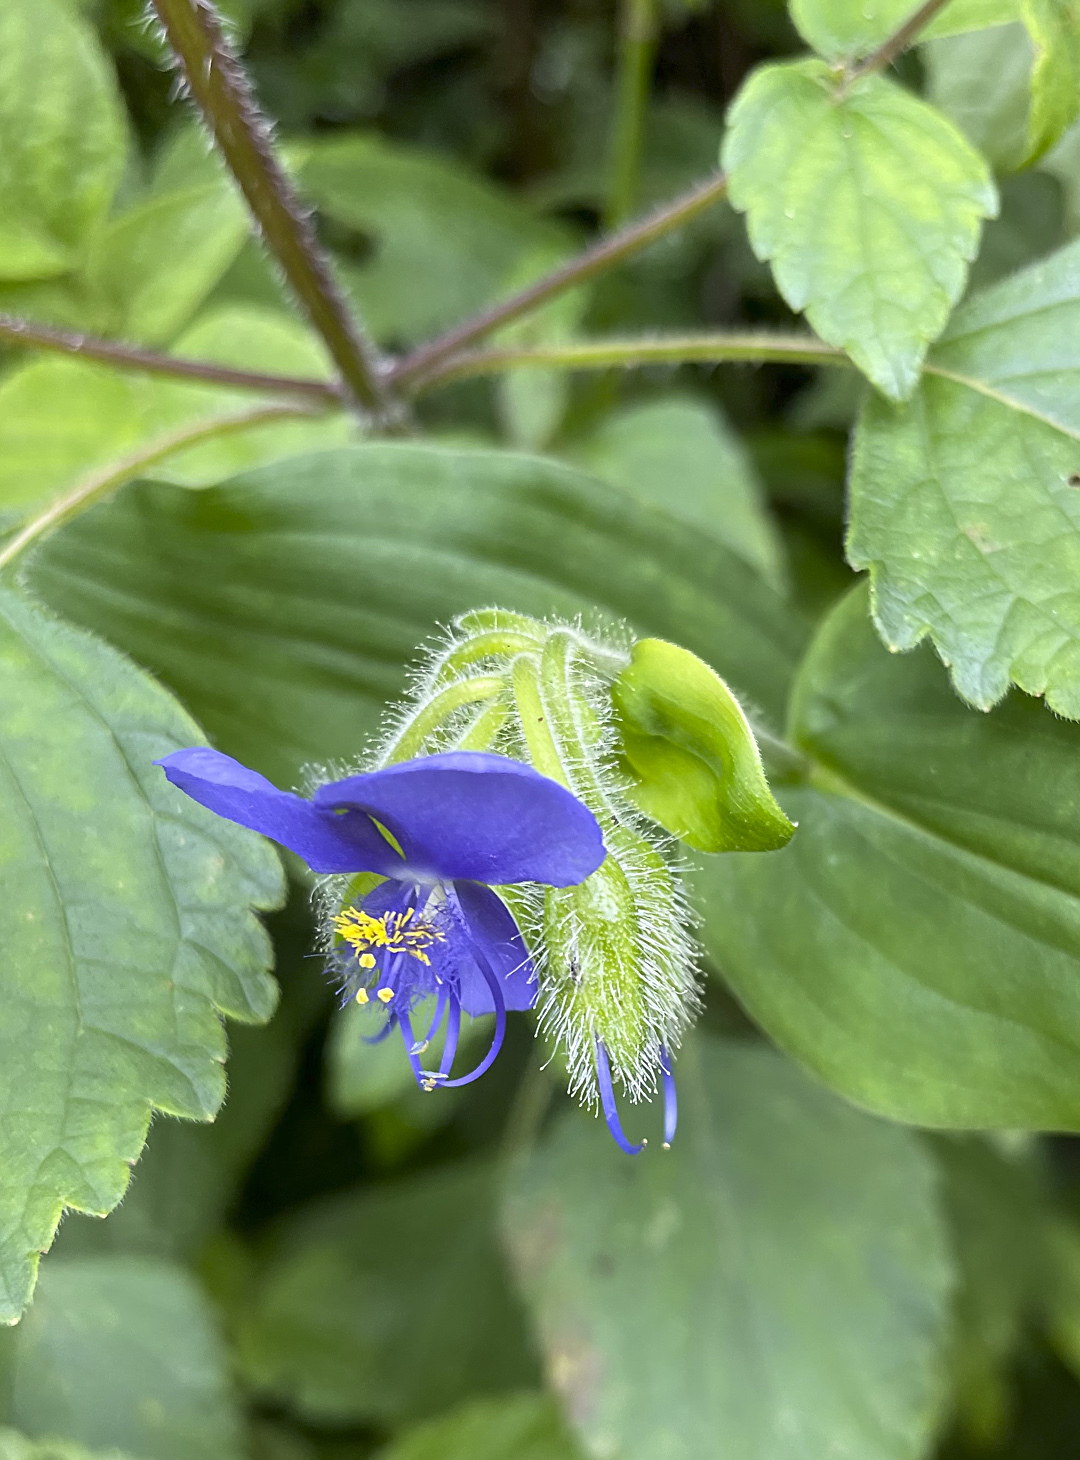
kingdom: Plantae
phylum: Tracheophyta
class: Liliopsida
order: Commelinales
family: Commelinaceae
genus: Tinantia
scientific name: Tinantia erecta
